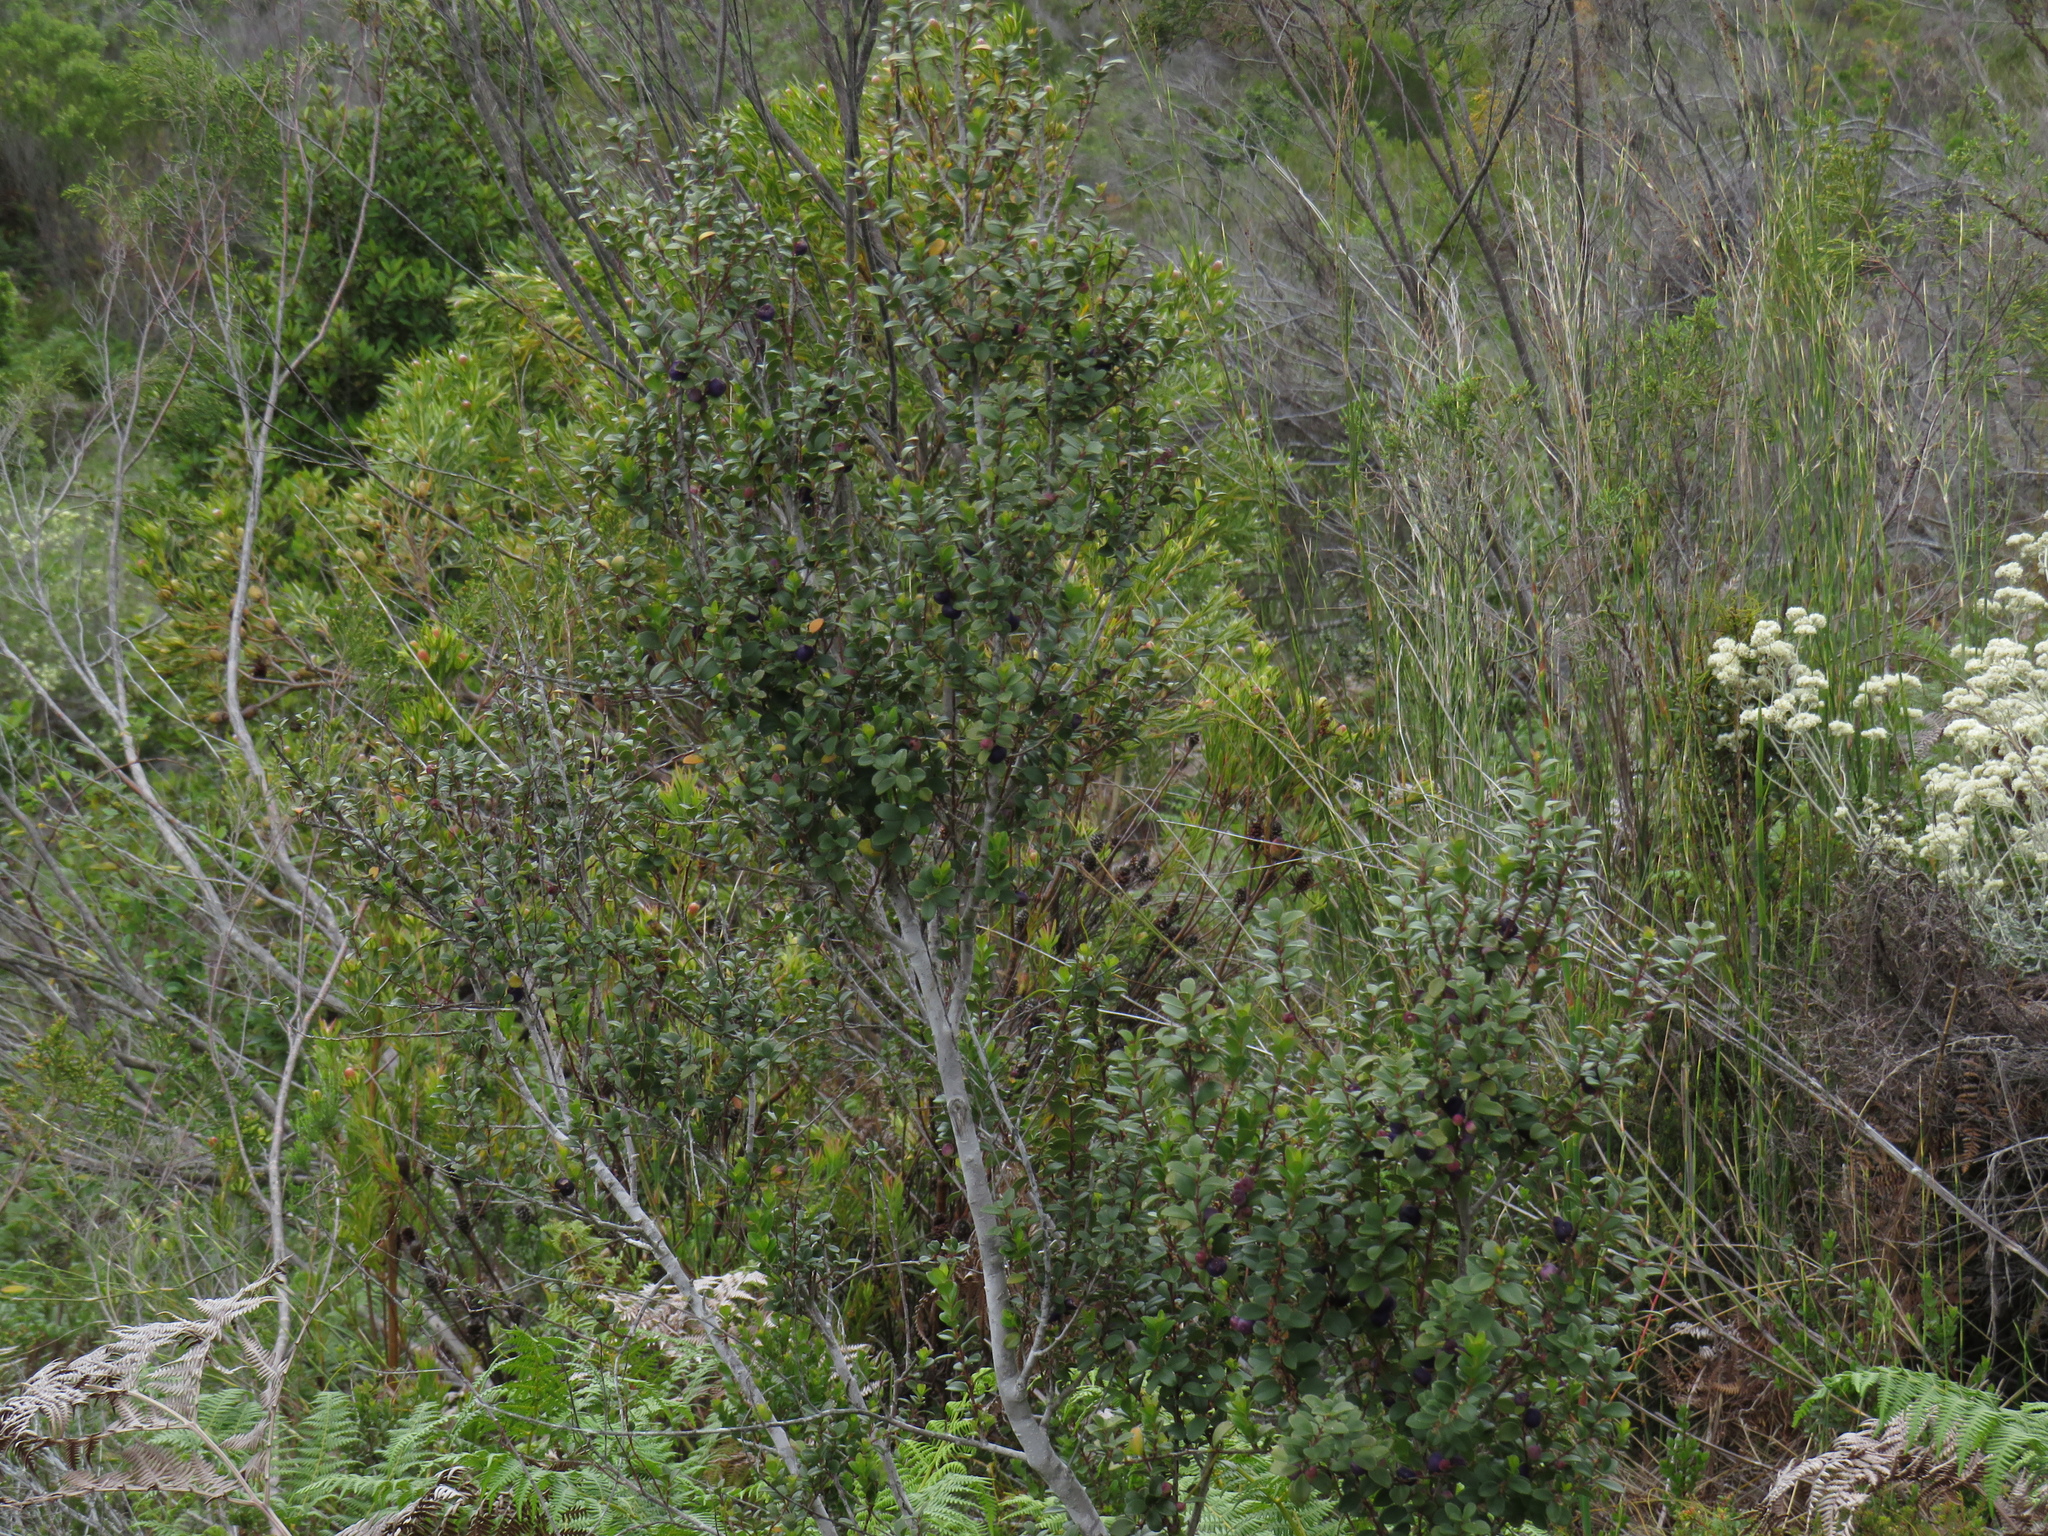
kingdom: Plantae
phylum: Tracheophyta
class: Magnoliopsida
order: Ericales
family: Primulaceae
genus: Myrsine
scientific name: Myrsine africana
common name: African-boxwood
